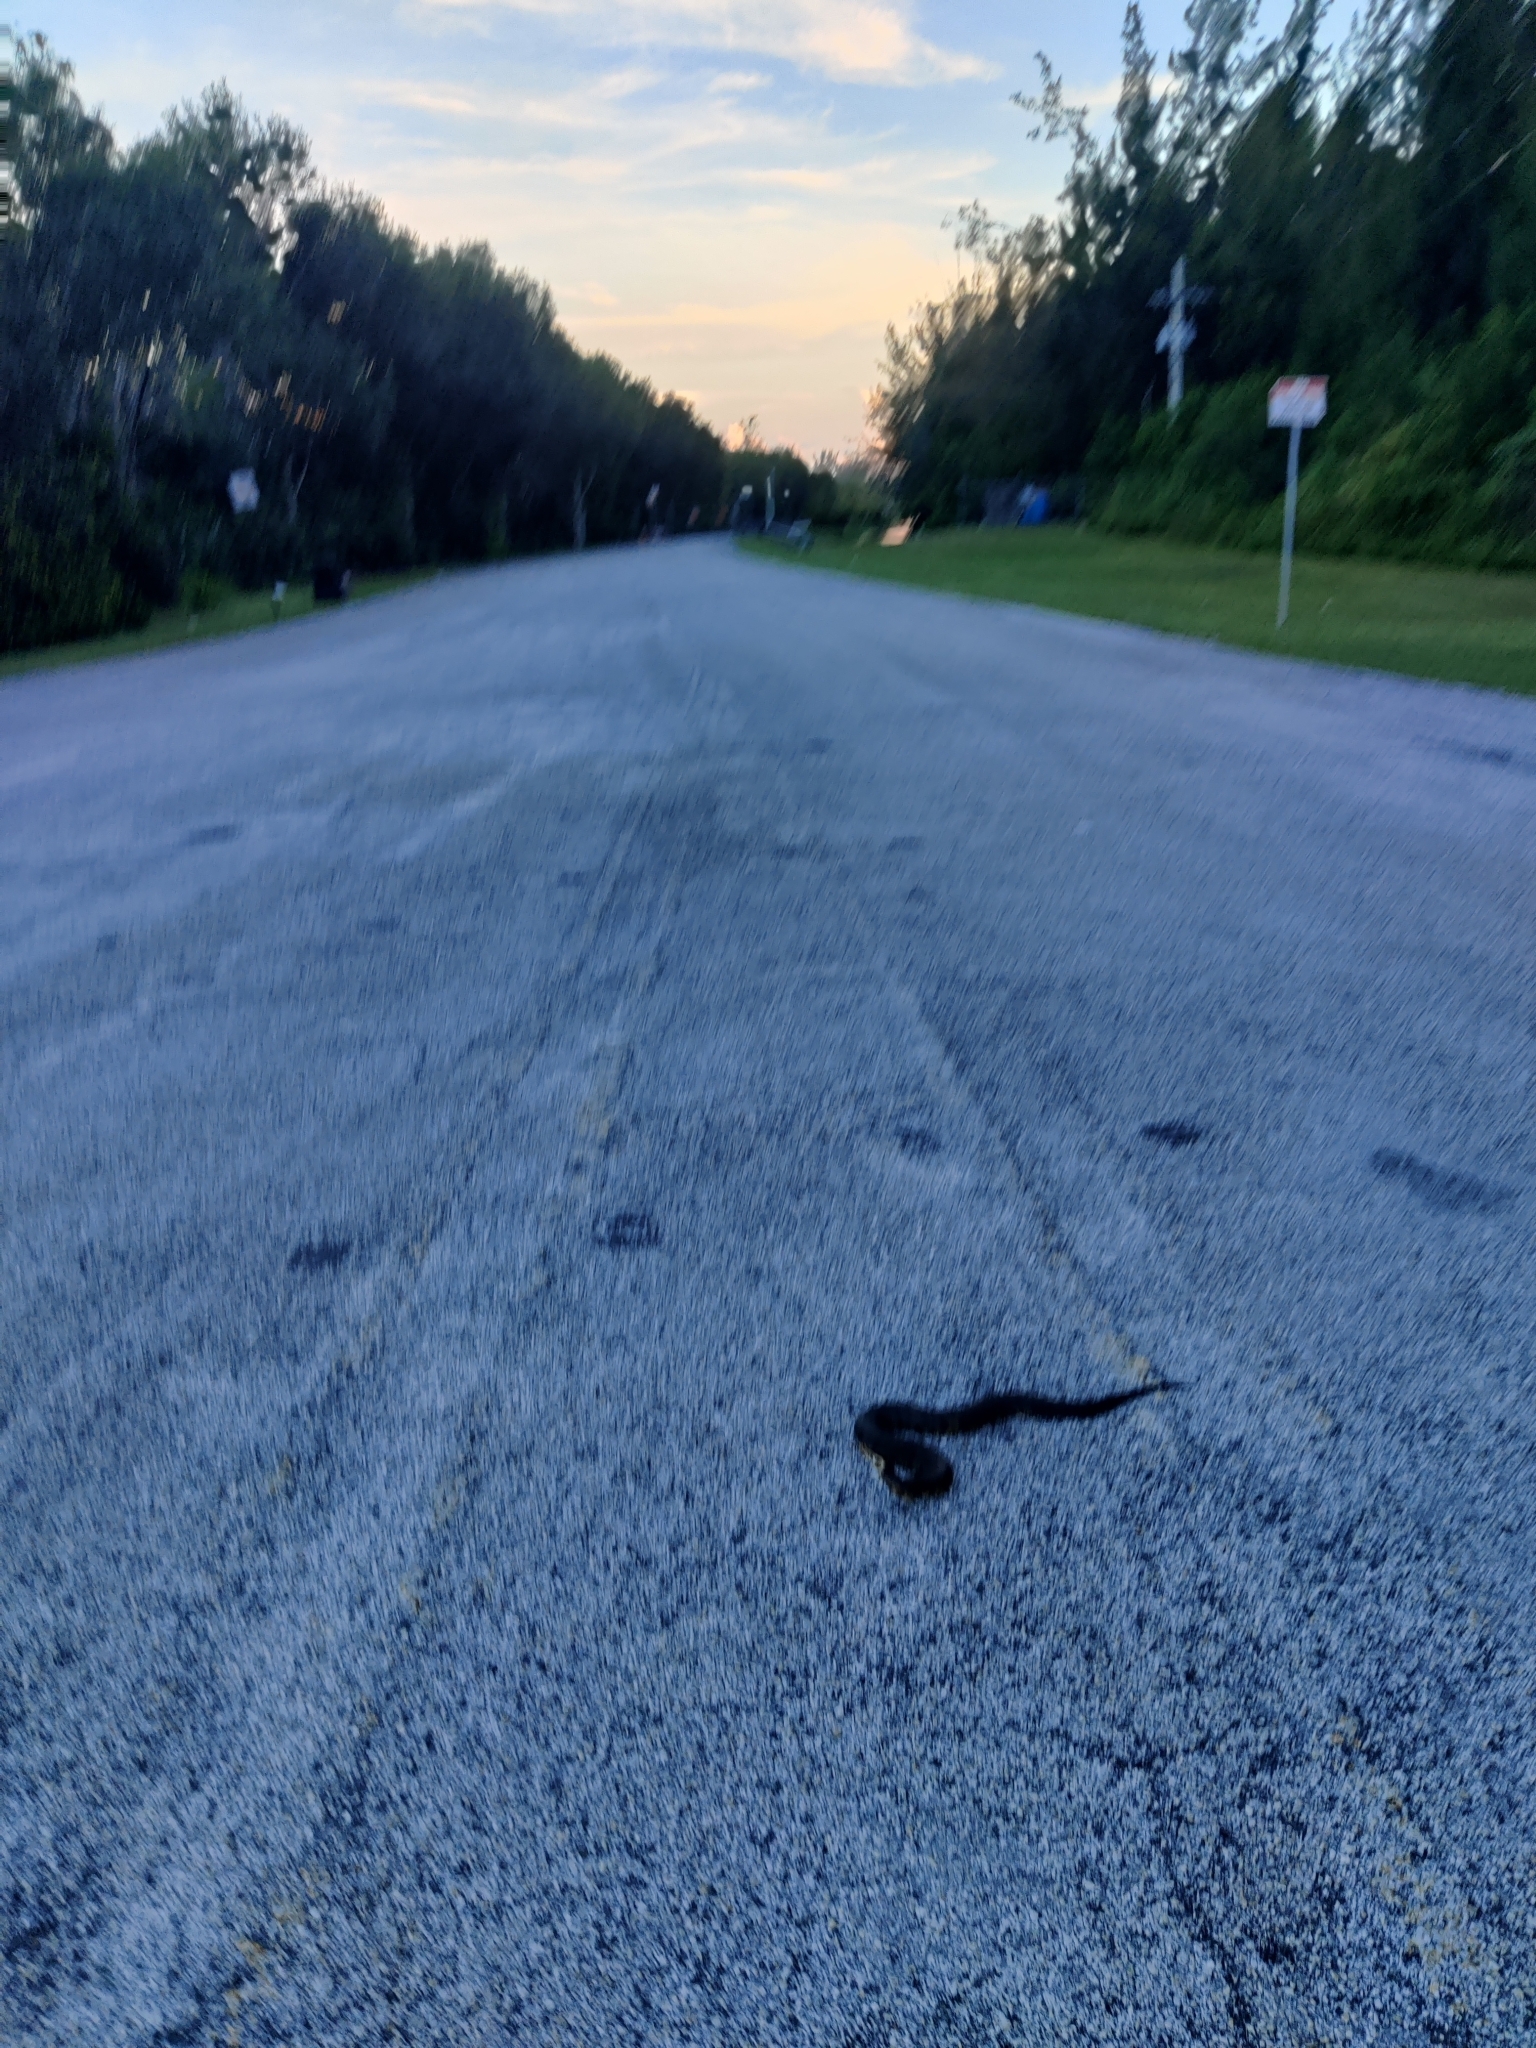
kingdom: Animalia
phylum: Chordata
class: Squamata
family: Viperidae
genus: Agkistrodon
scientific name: Agkistrodon conanti
